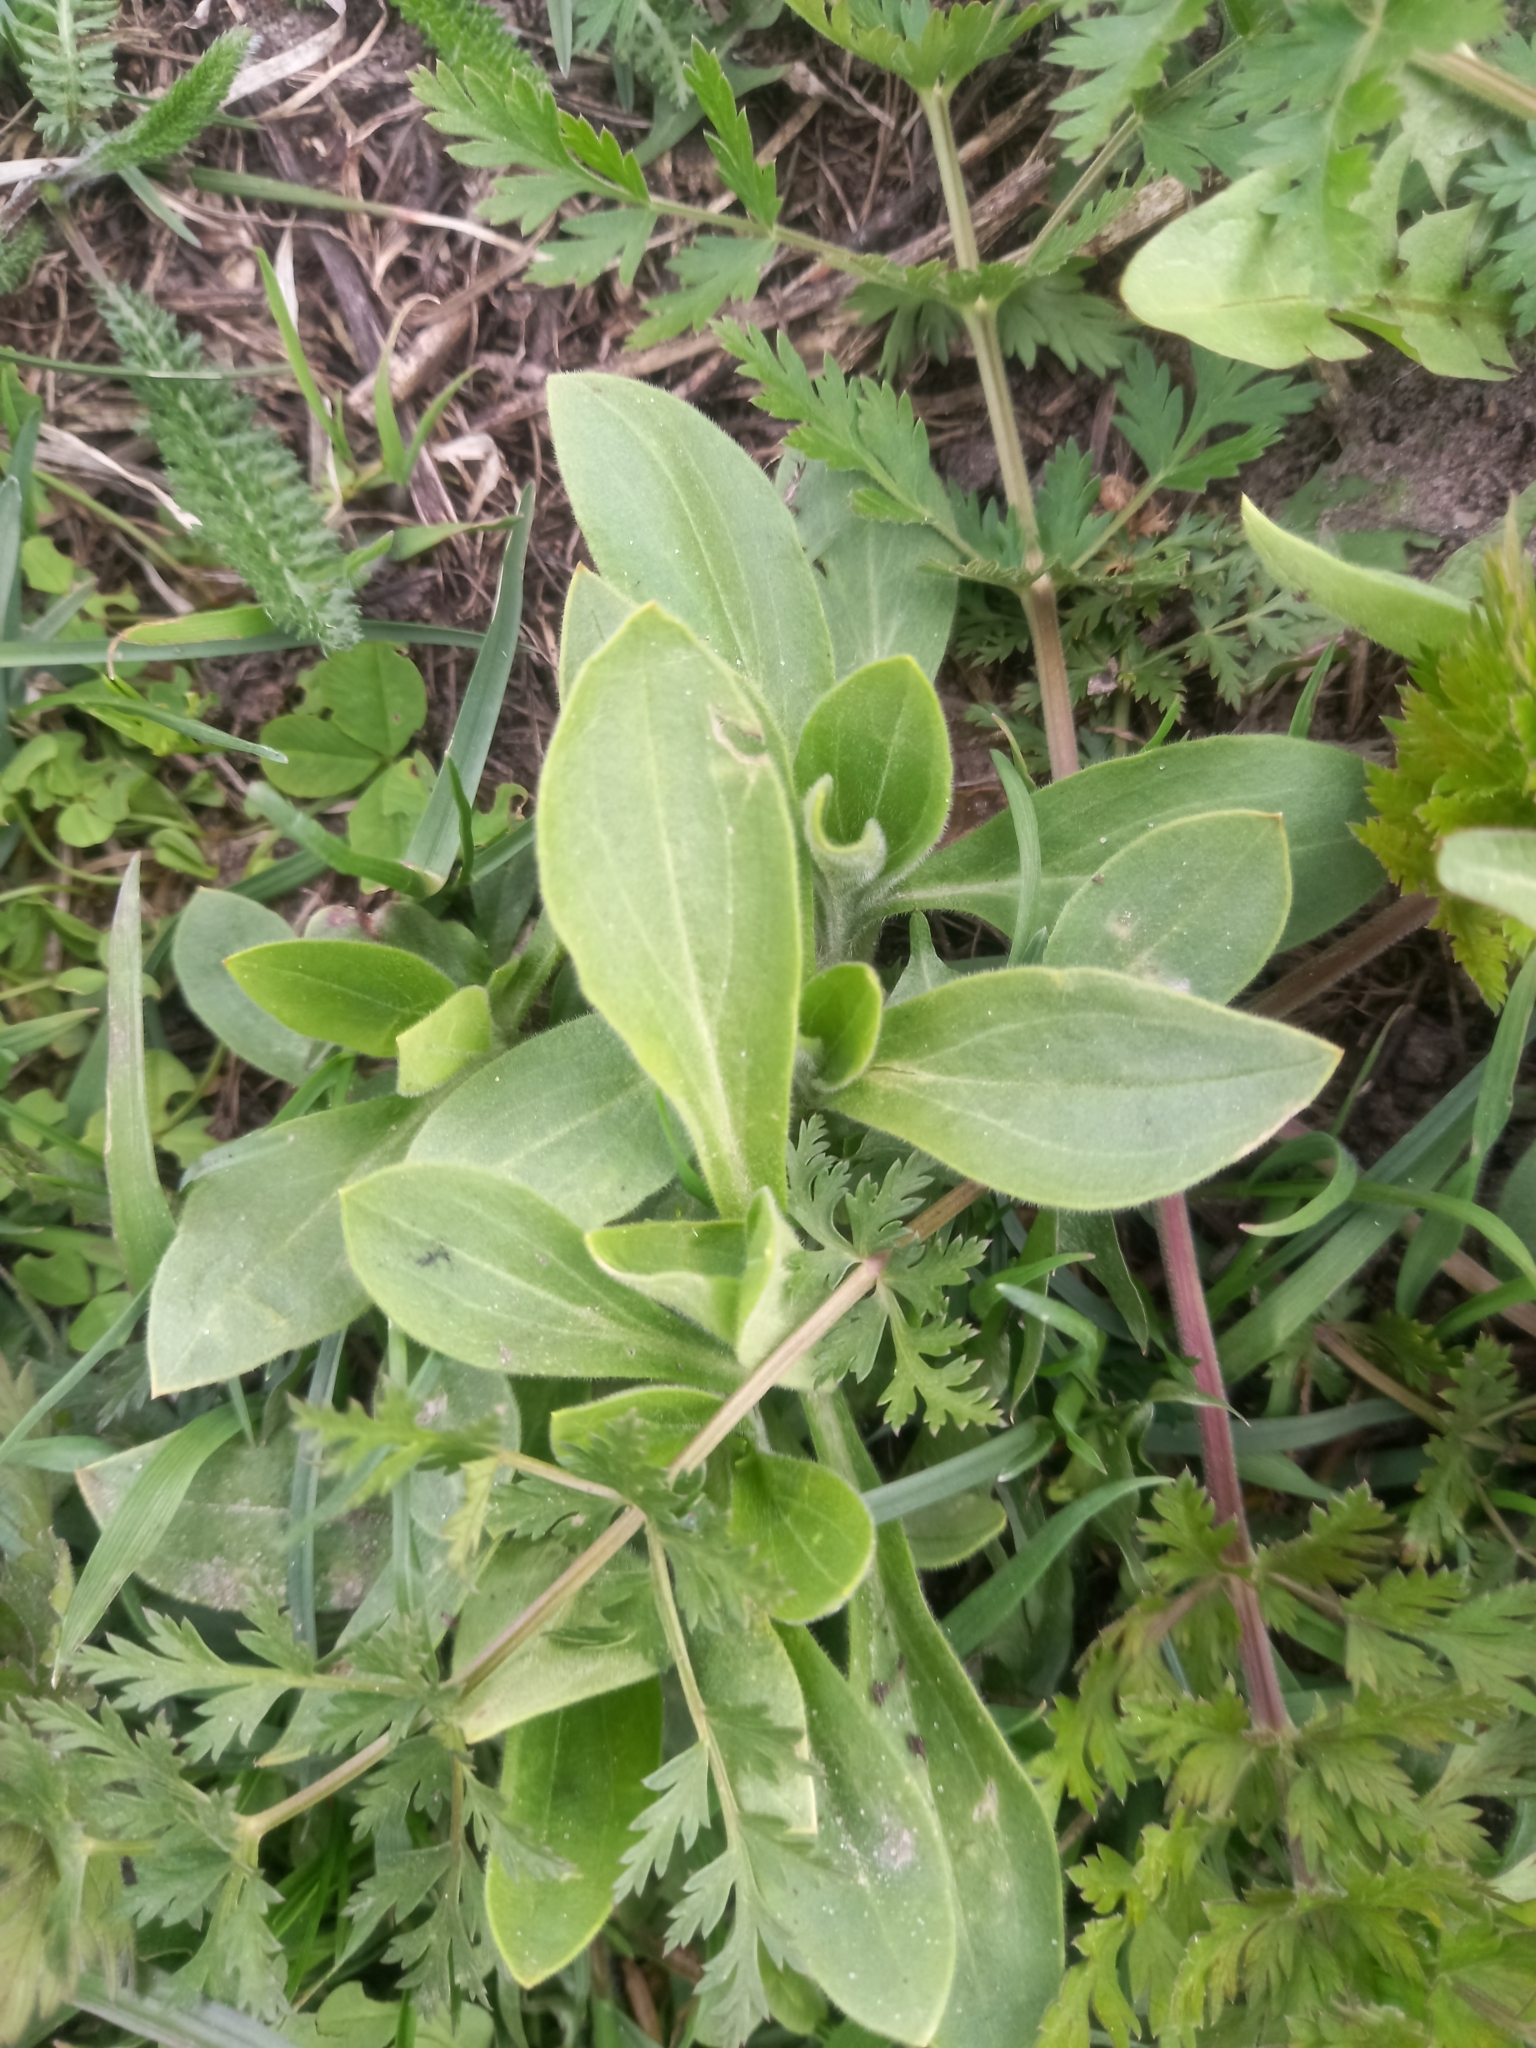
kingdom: Plantae
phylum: Tracheophyta
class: Magnoliopsida
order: Caryophyllales
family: Caryophyllaceae
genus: Silene
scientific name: Silene latifolia
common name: White campion
